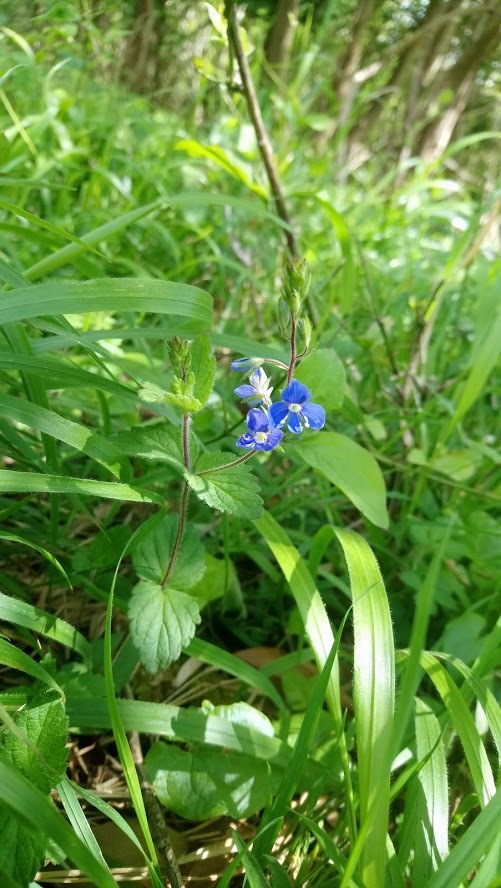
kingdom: Plantae
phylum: Tracheophyta
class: Magnoliopsida
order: Lamiales
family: Plantaginaceae
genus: Veronica
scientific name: Veronica chamaedrys
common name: Germander speedwell
